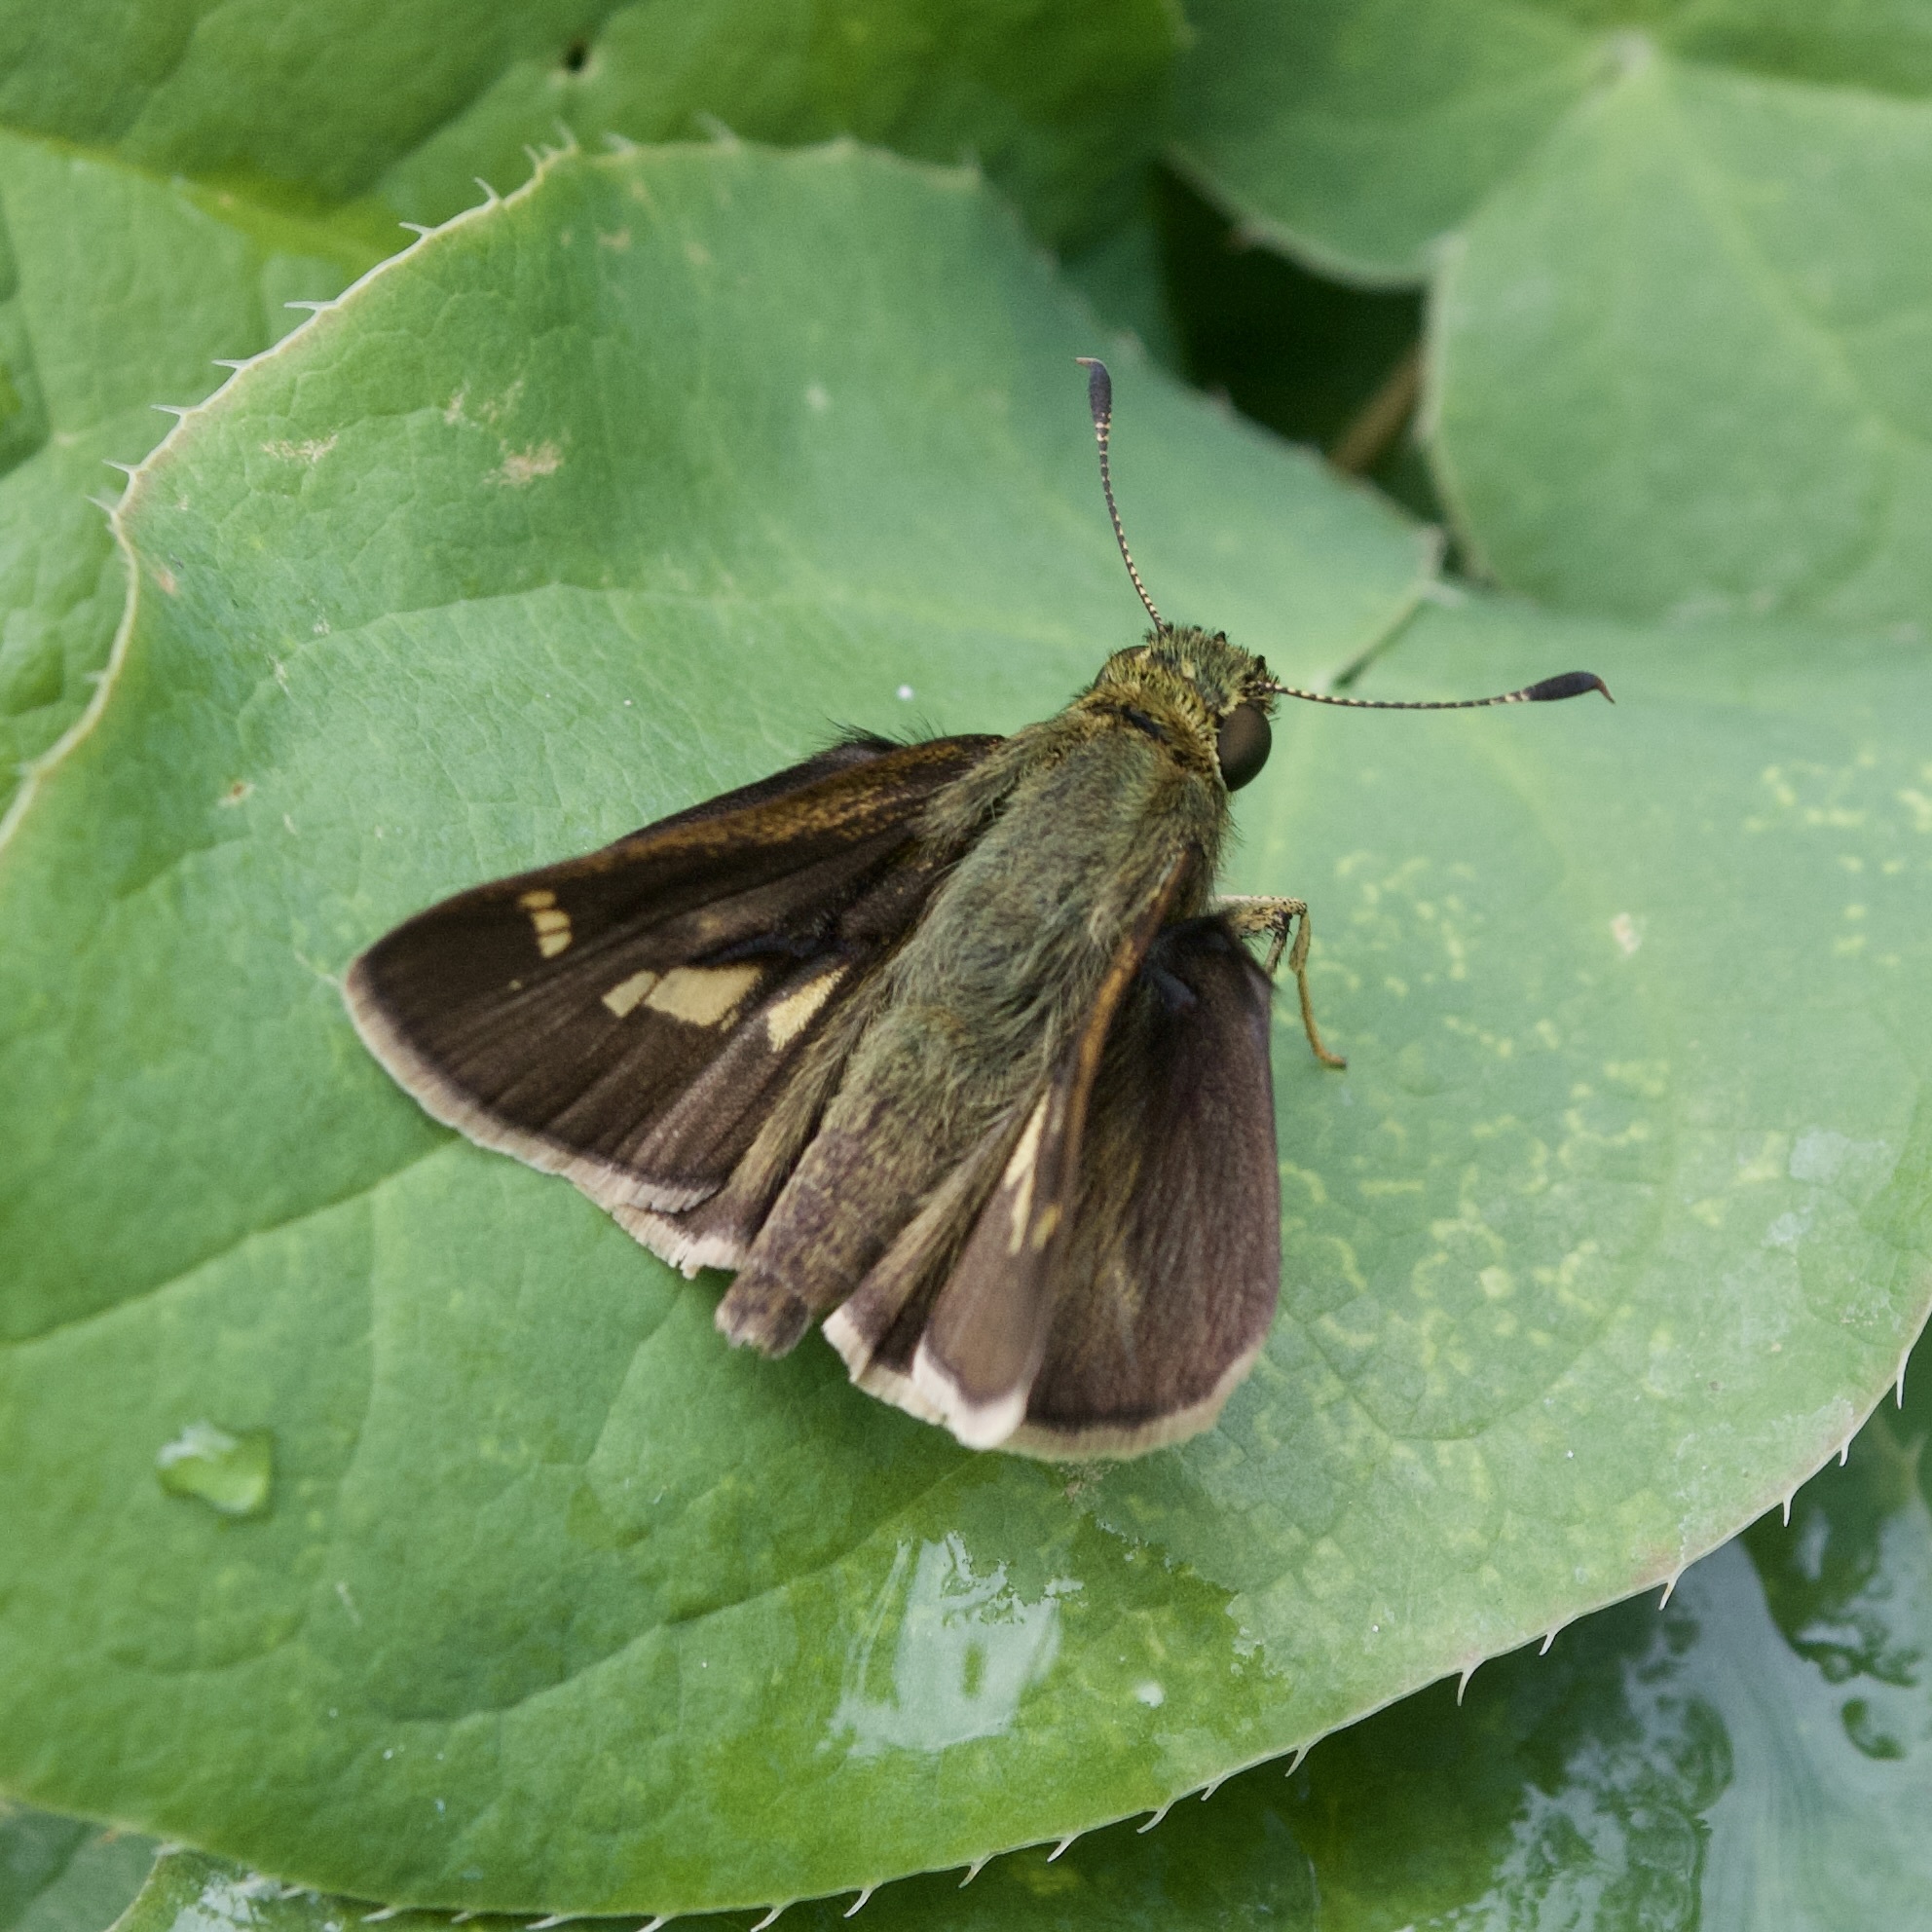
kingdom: Animalia
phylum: Arthropoda
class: Insecta
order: Lepidoptera
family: Hesperiidae
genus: Vernia
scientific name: Vernia verna
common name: Little glassywing
